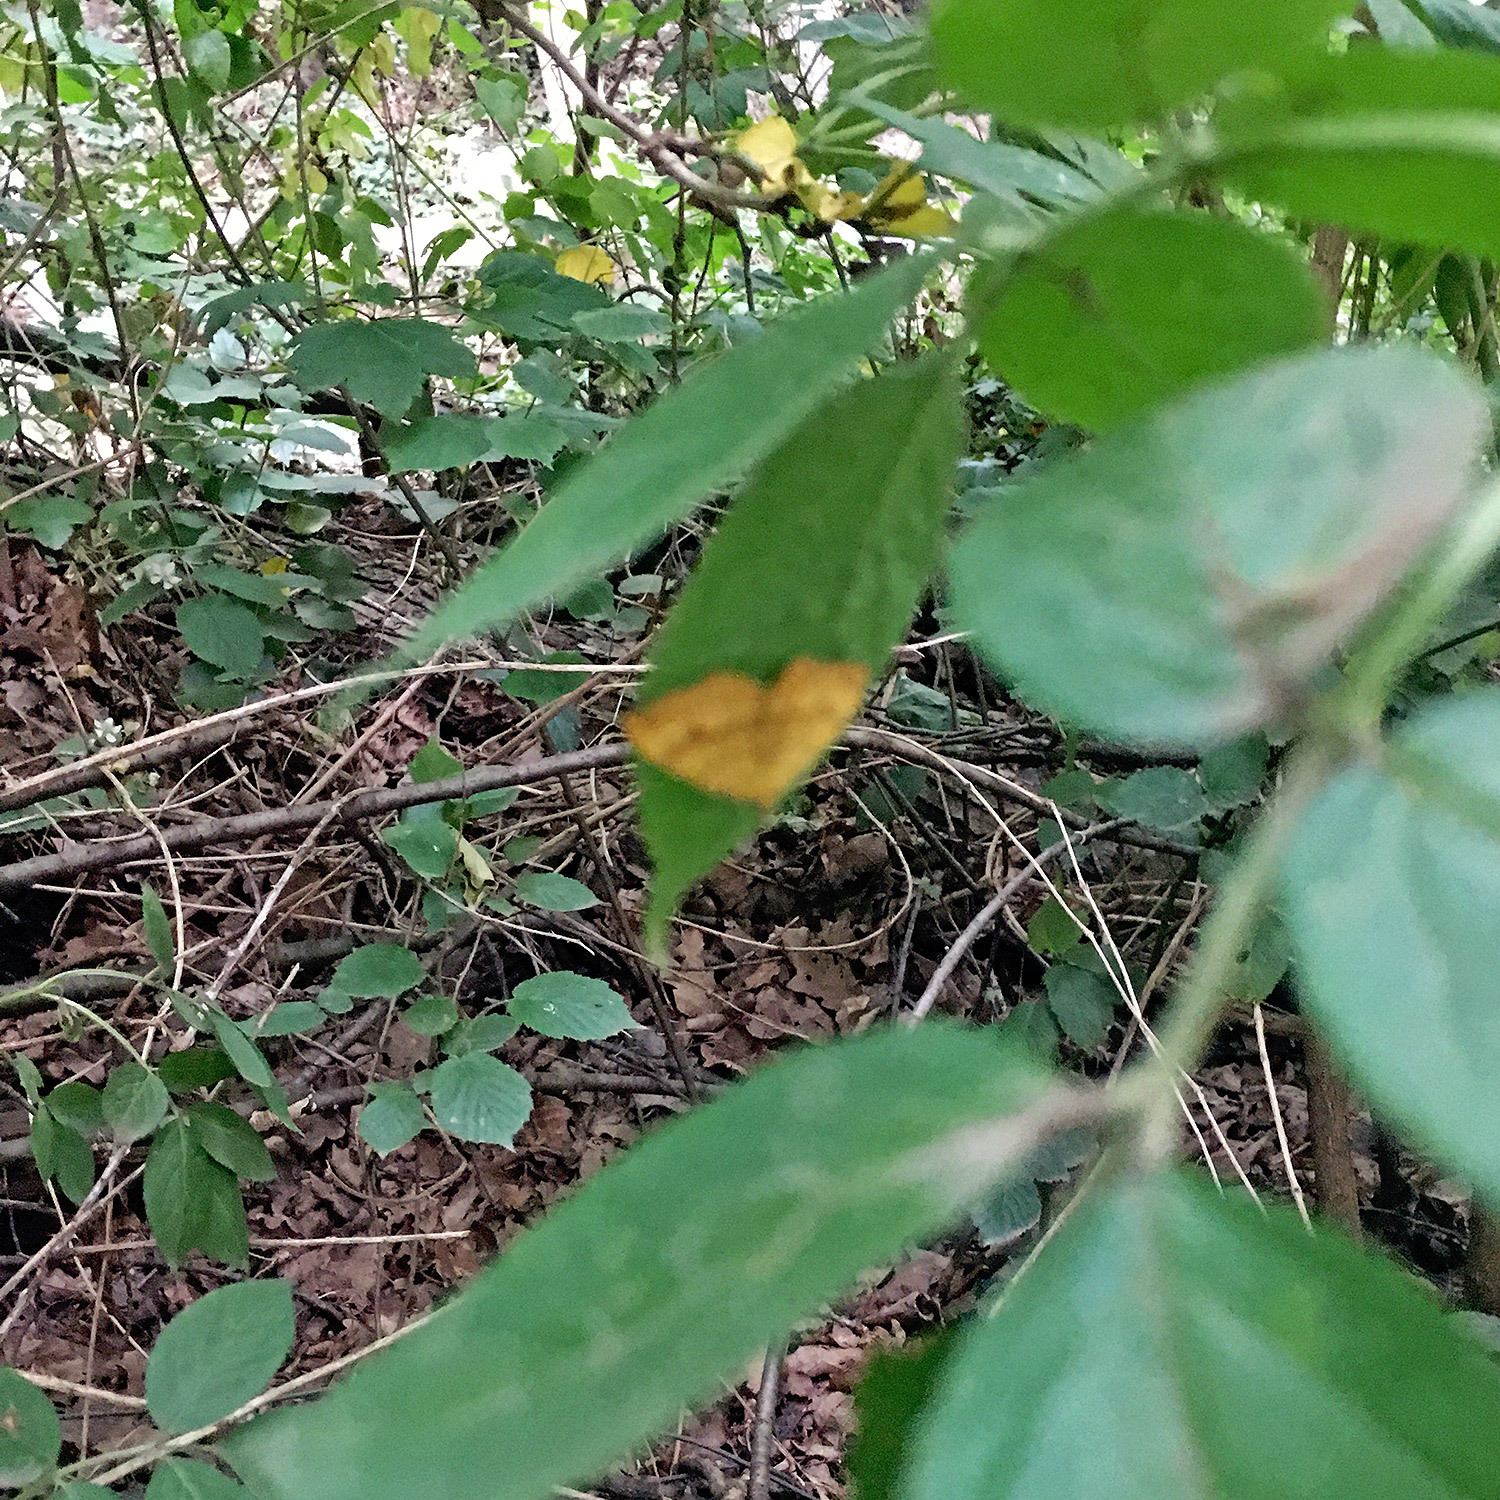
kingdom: Animalia
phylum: Arthropoda
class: Insecta
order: Lepidoptera
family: Geometridae
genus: Camptogramma
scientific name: Camptogramma bilineata
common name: Yellow shell
